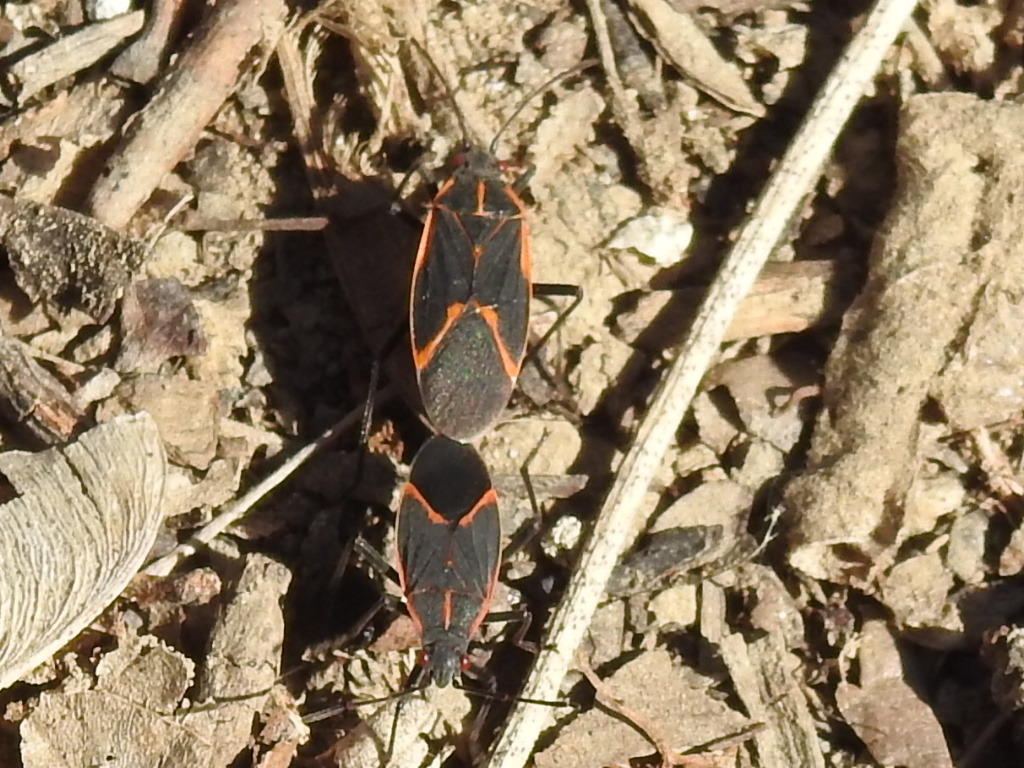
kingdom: Animalia
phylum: Arthropoda
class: Insecta
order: Hemiptera
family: Rhopalidae
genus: Boisea
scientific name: Boisea trivittata
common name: Boxelder bug
